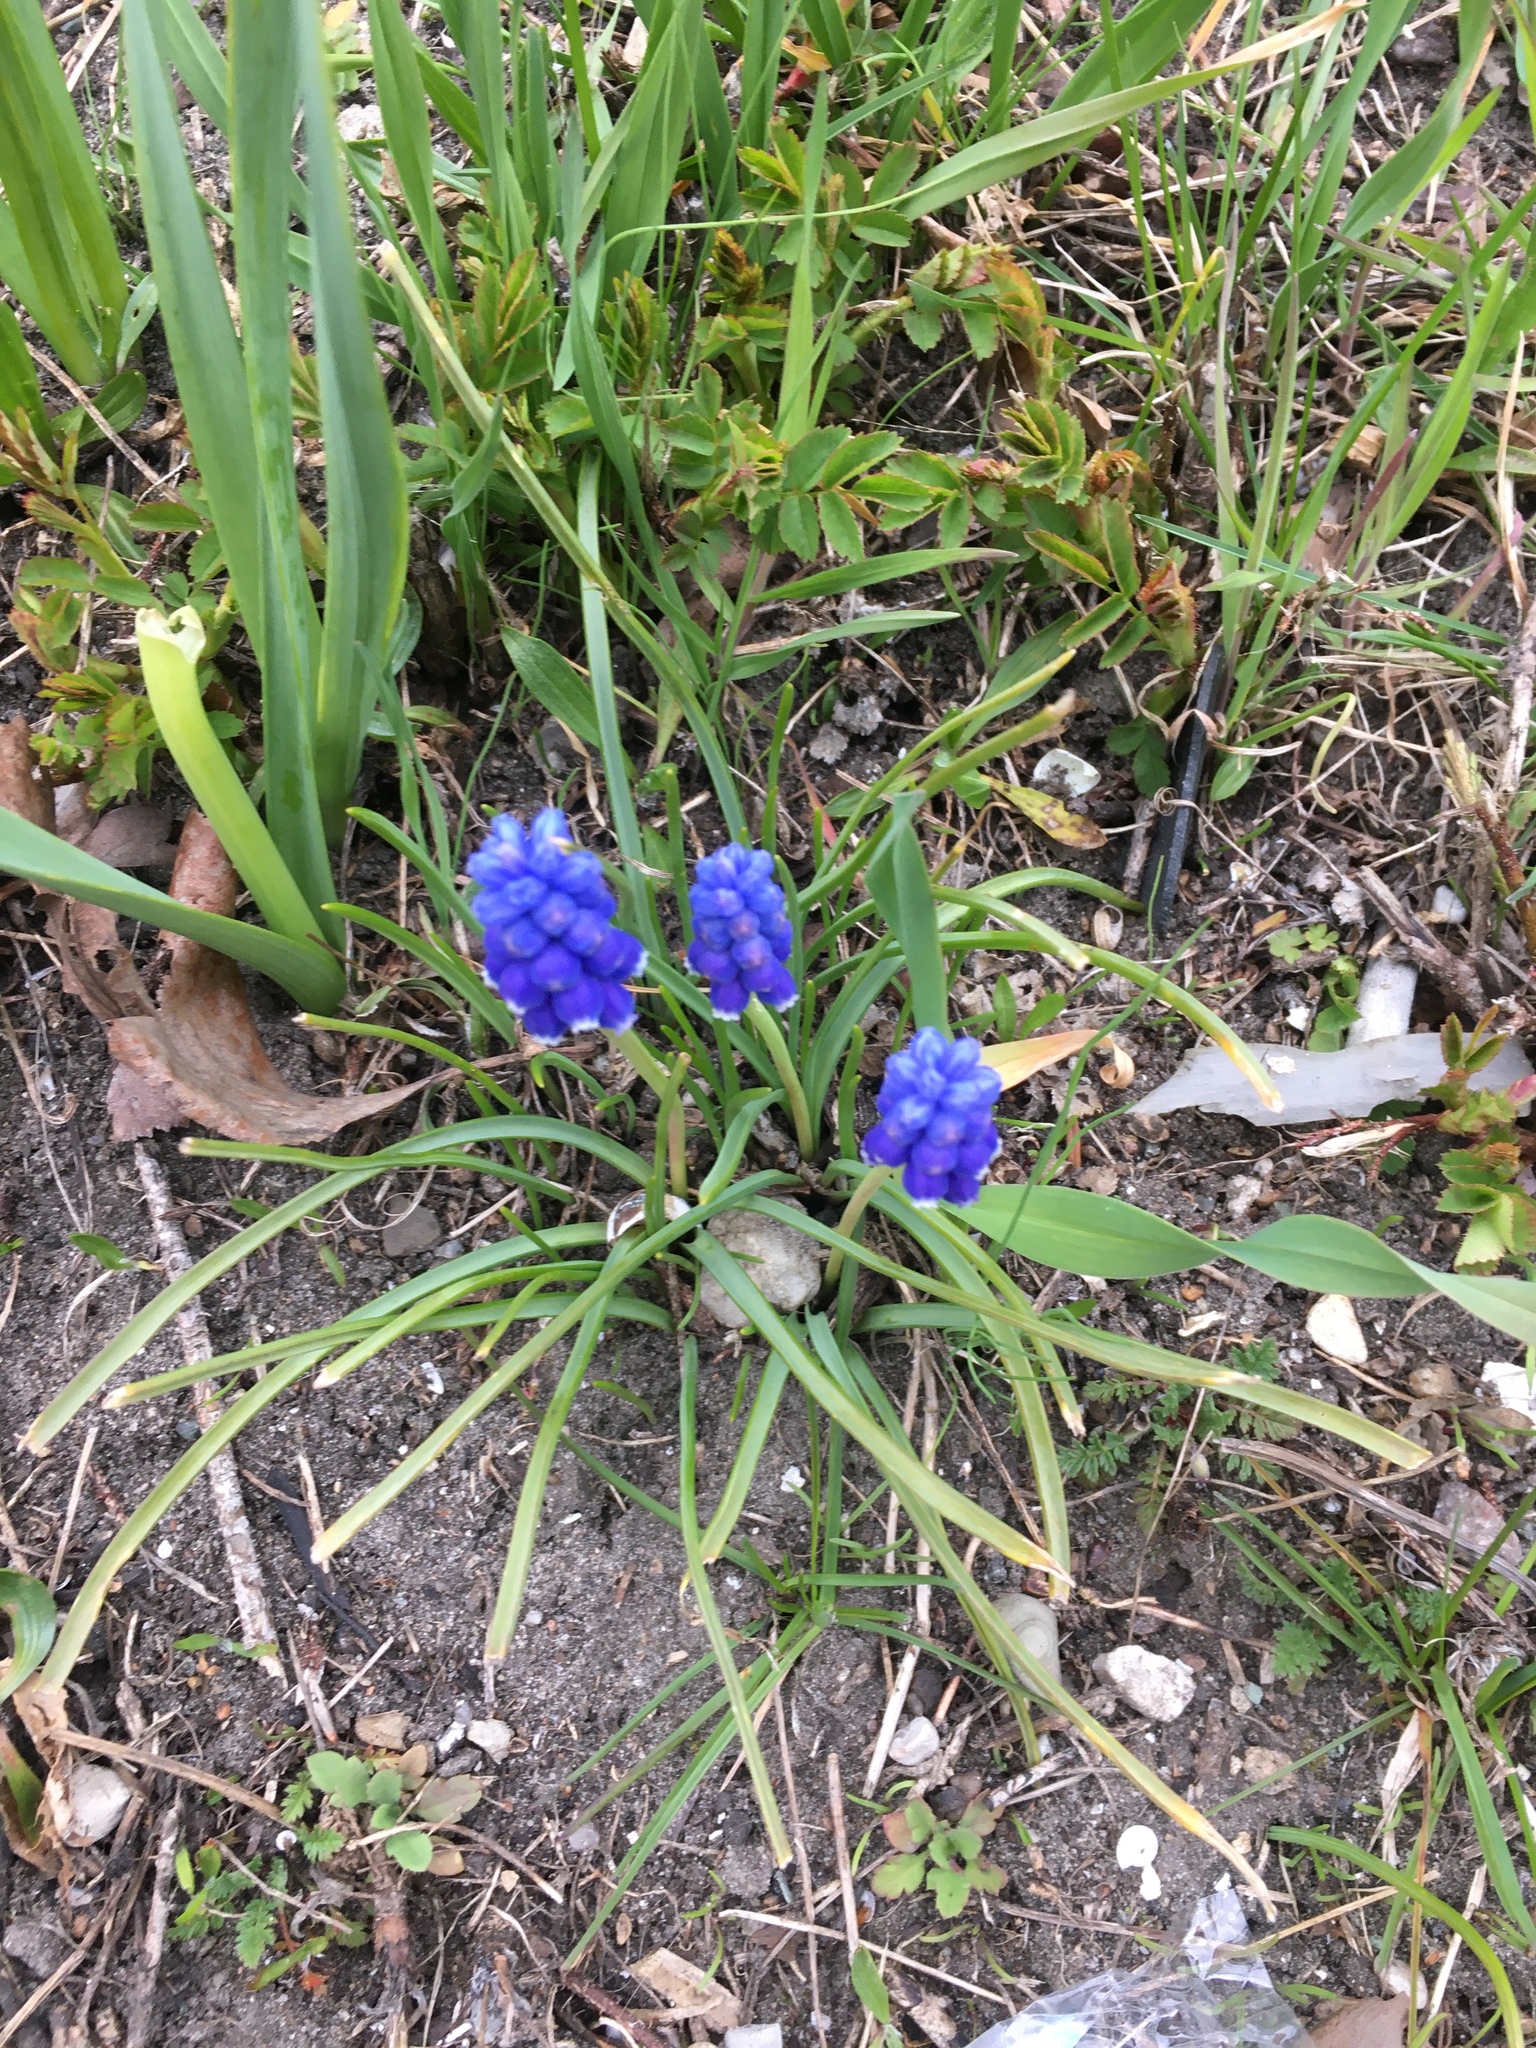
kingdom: Plantae
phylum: Tracheophyta
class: Liliopsida
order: Asparagales
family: Asparagaceae
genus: Muscari
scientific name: Muscari botryoides
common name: Compact grape-hyacinth
